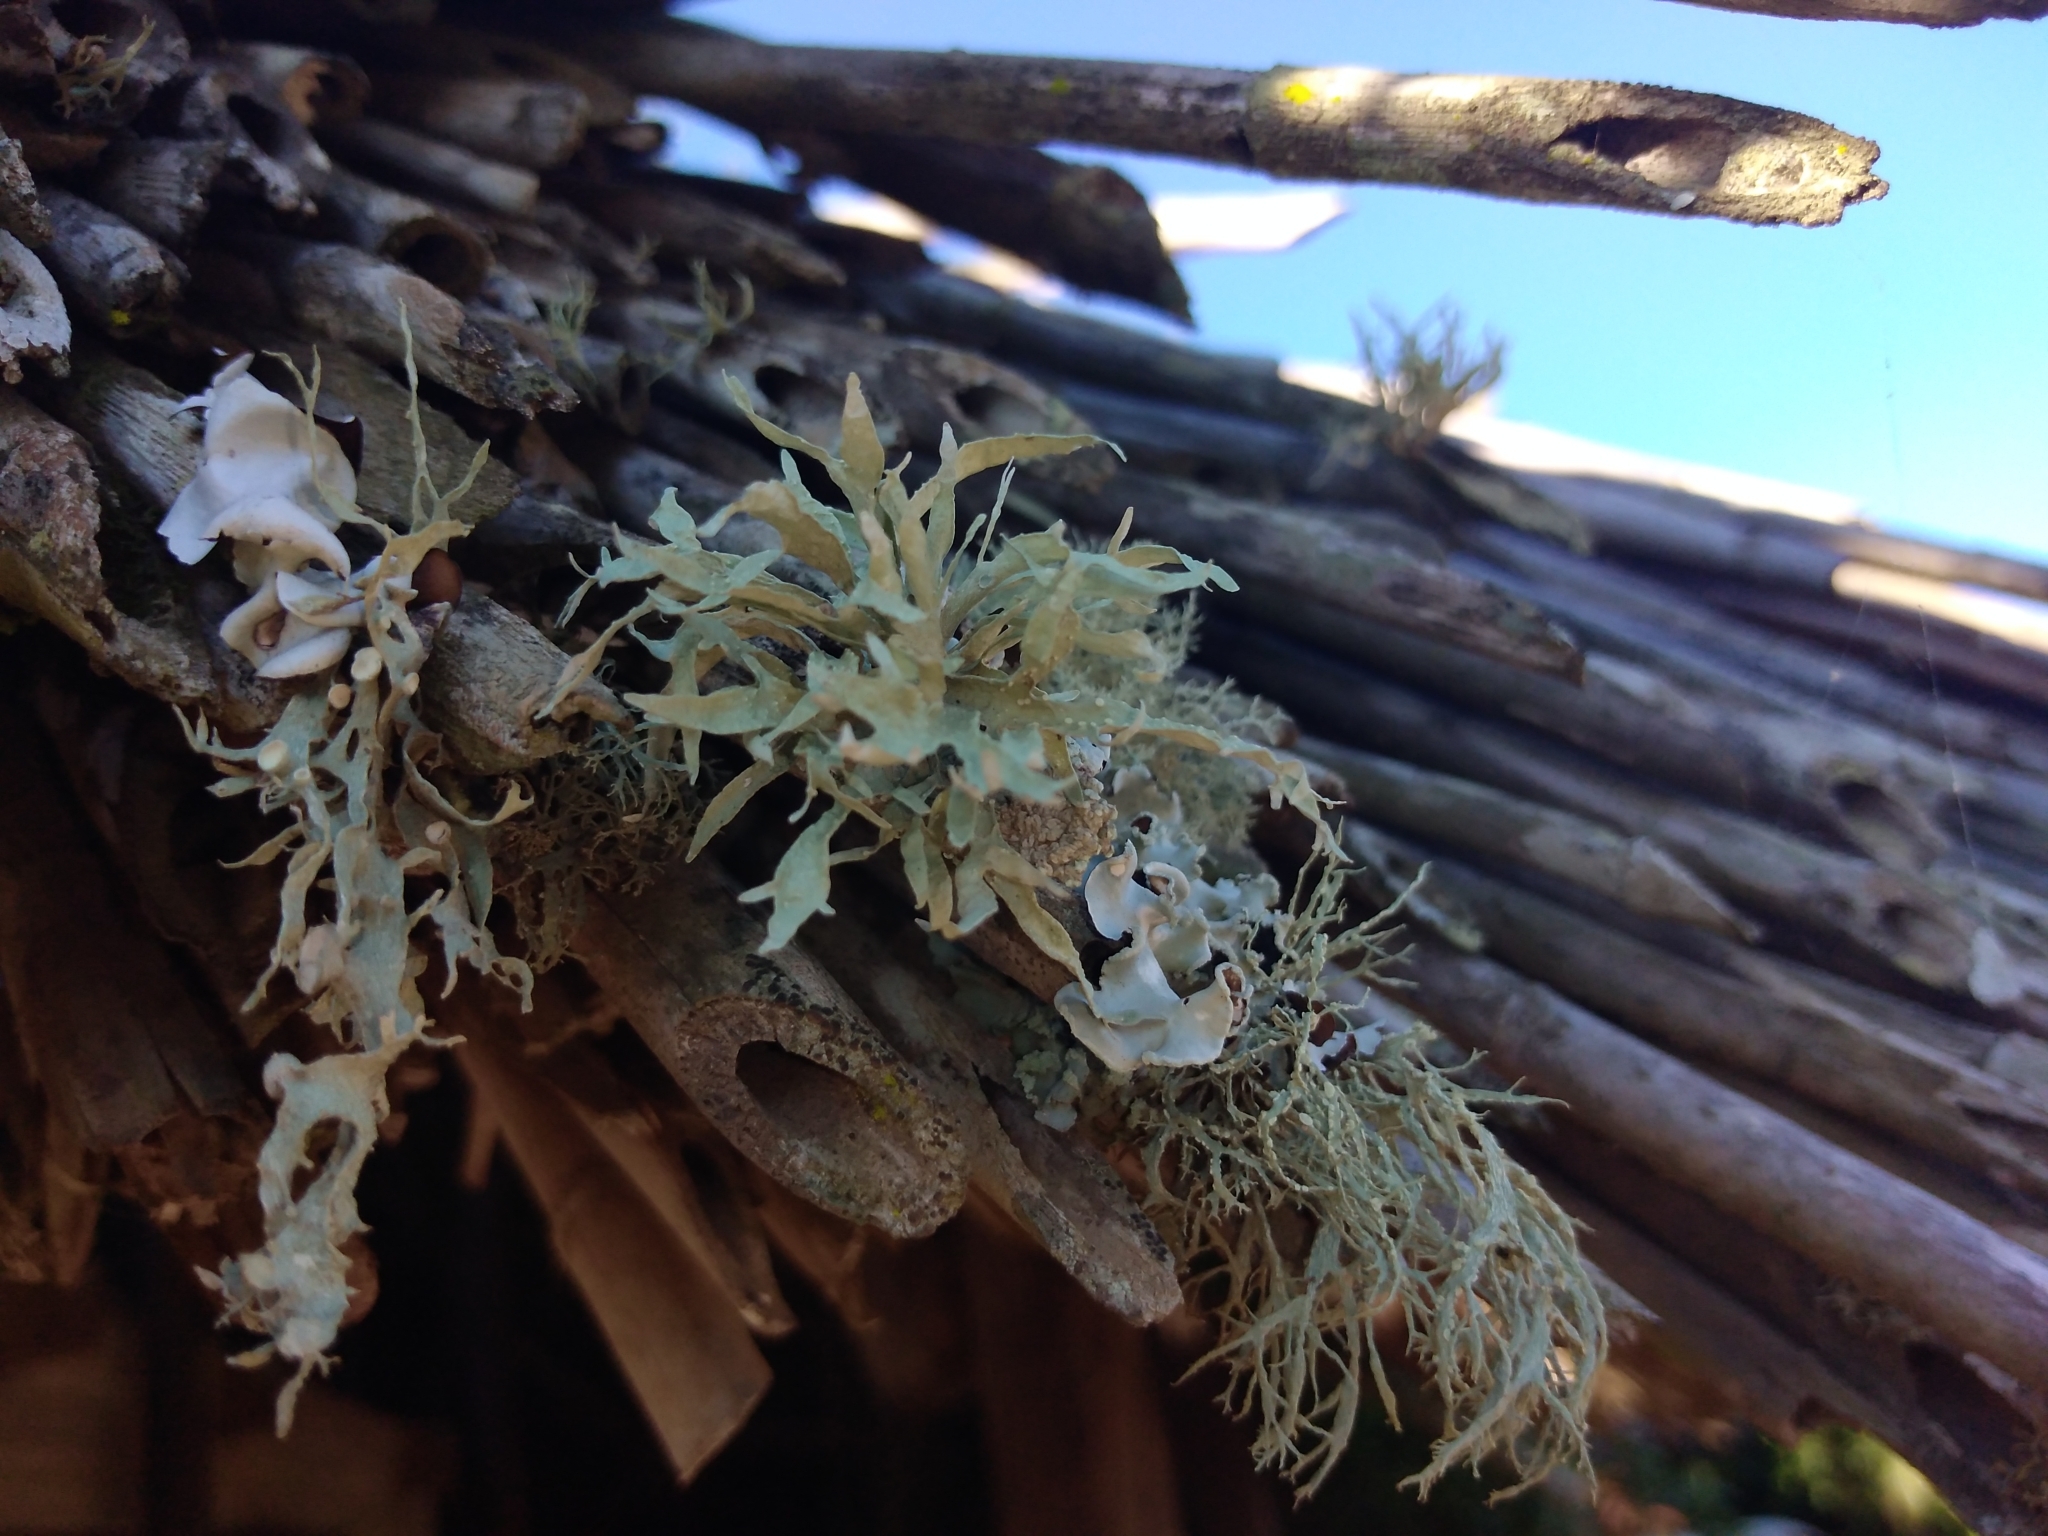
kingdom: Fungi
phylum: Ascomycota
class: Lecanoromycetes
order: Lecanorales
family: Ramalinaceae
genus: Ramalina
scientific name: Ramalina celastri
